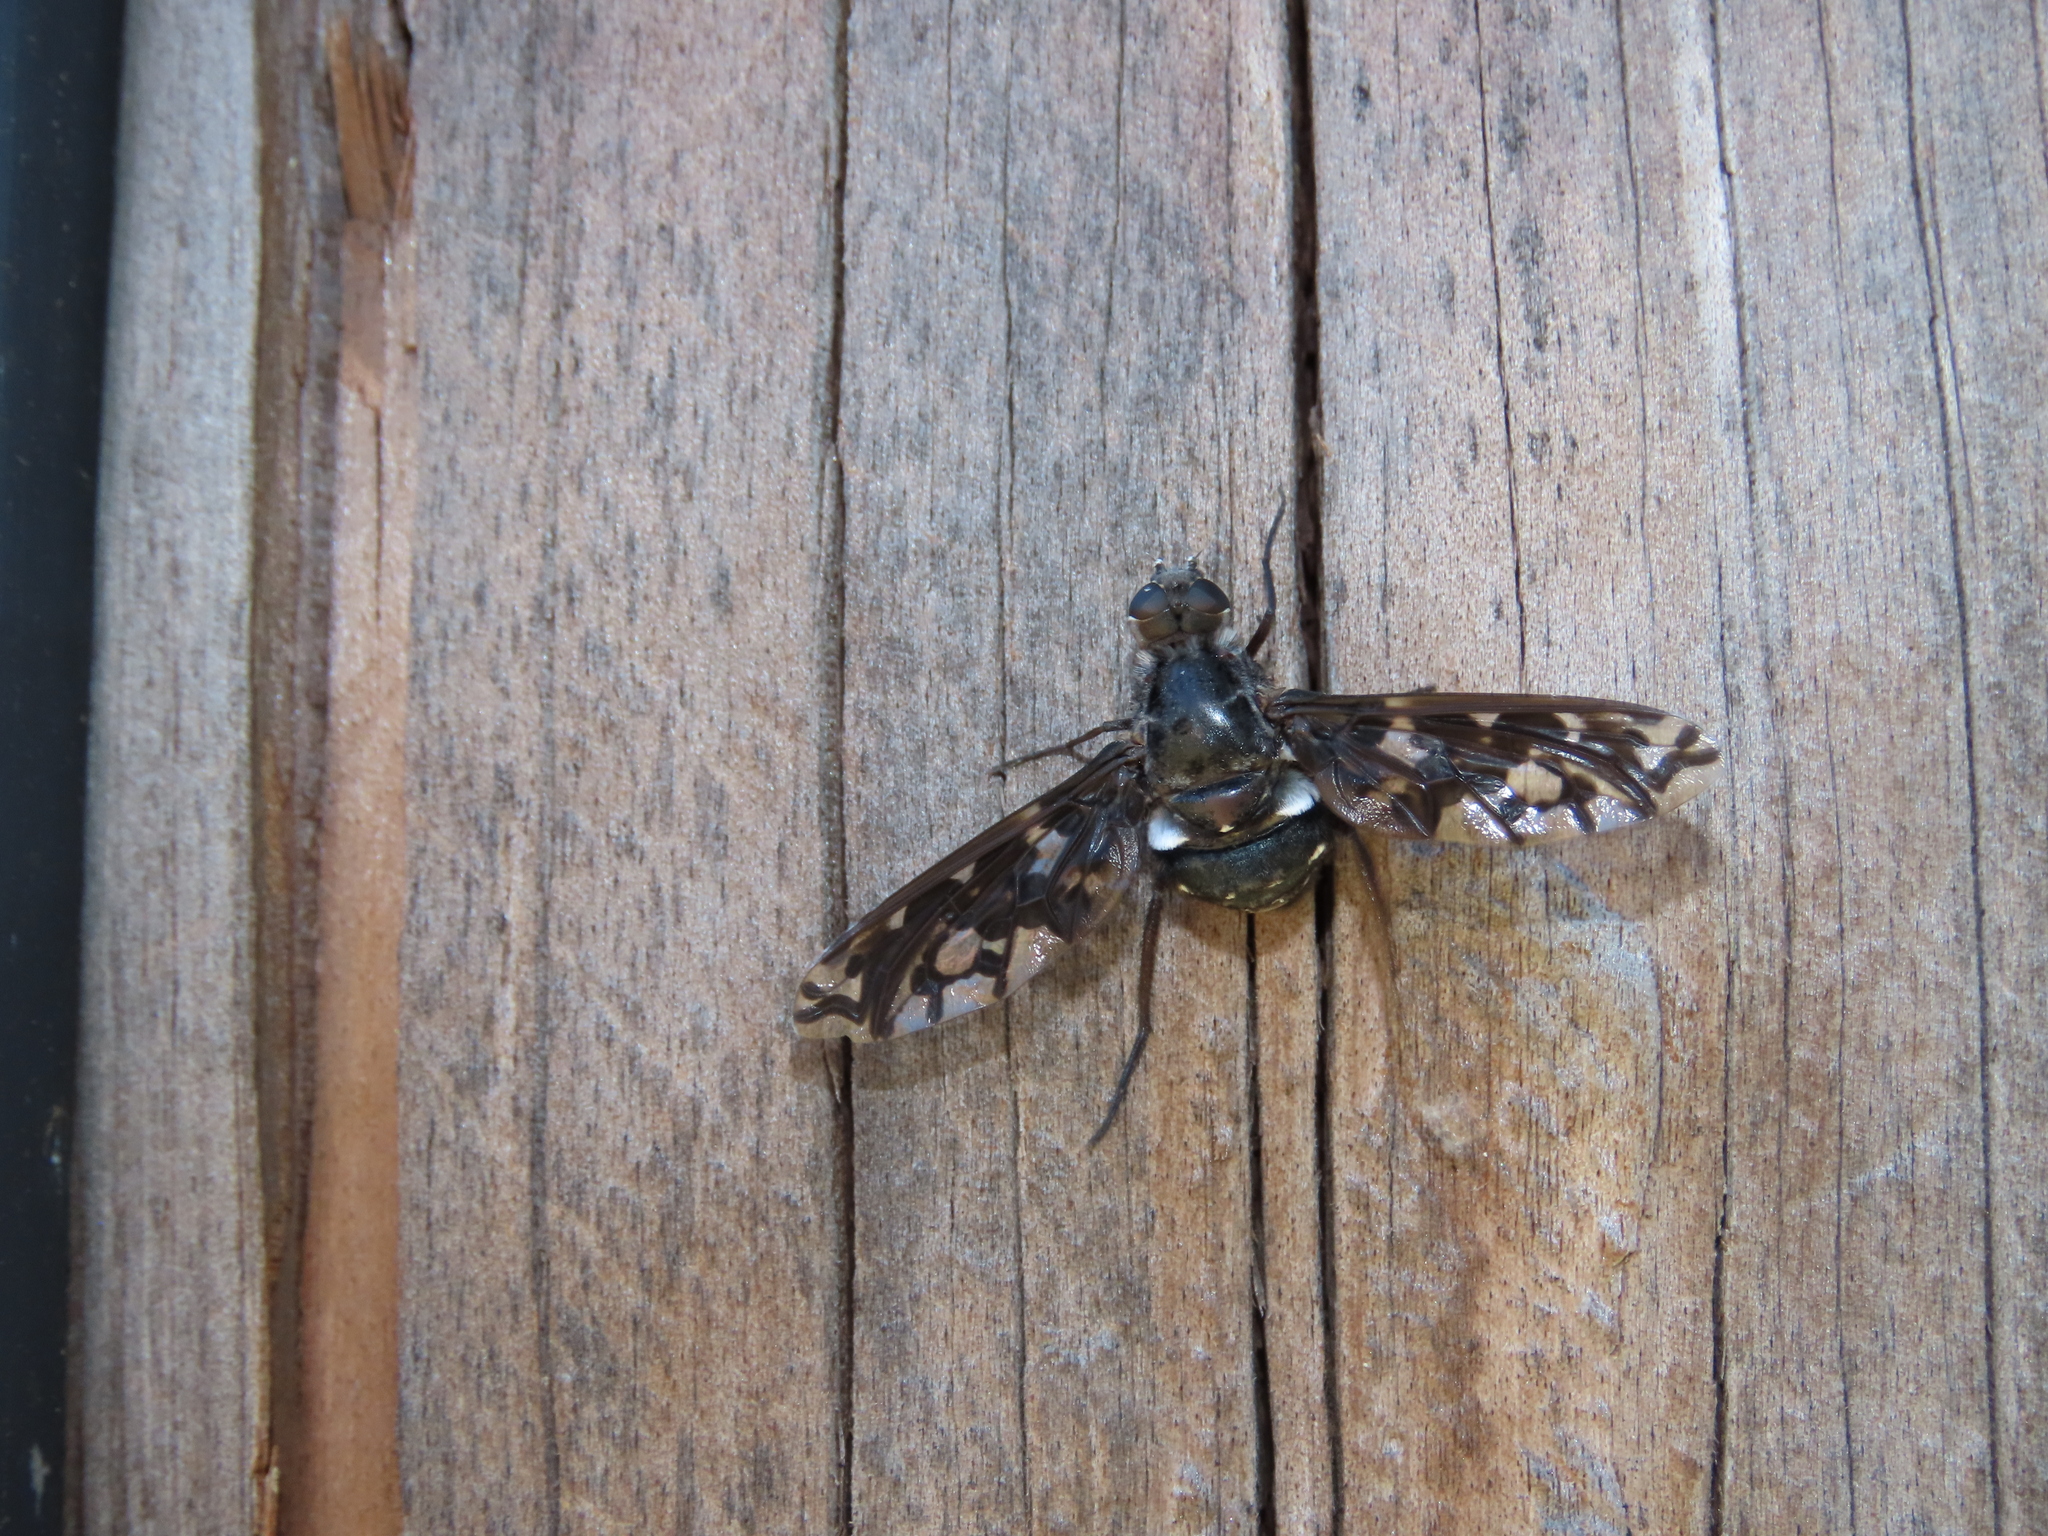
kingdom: Animalia
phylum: Arthropoda
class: Insecta
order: Diptera
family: Bombyliidae
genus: Xenox
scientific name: Xenox tigrinus
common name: Tiger bee fly
